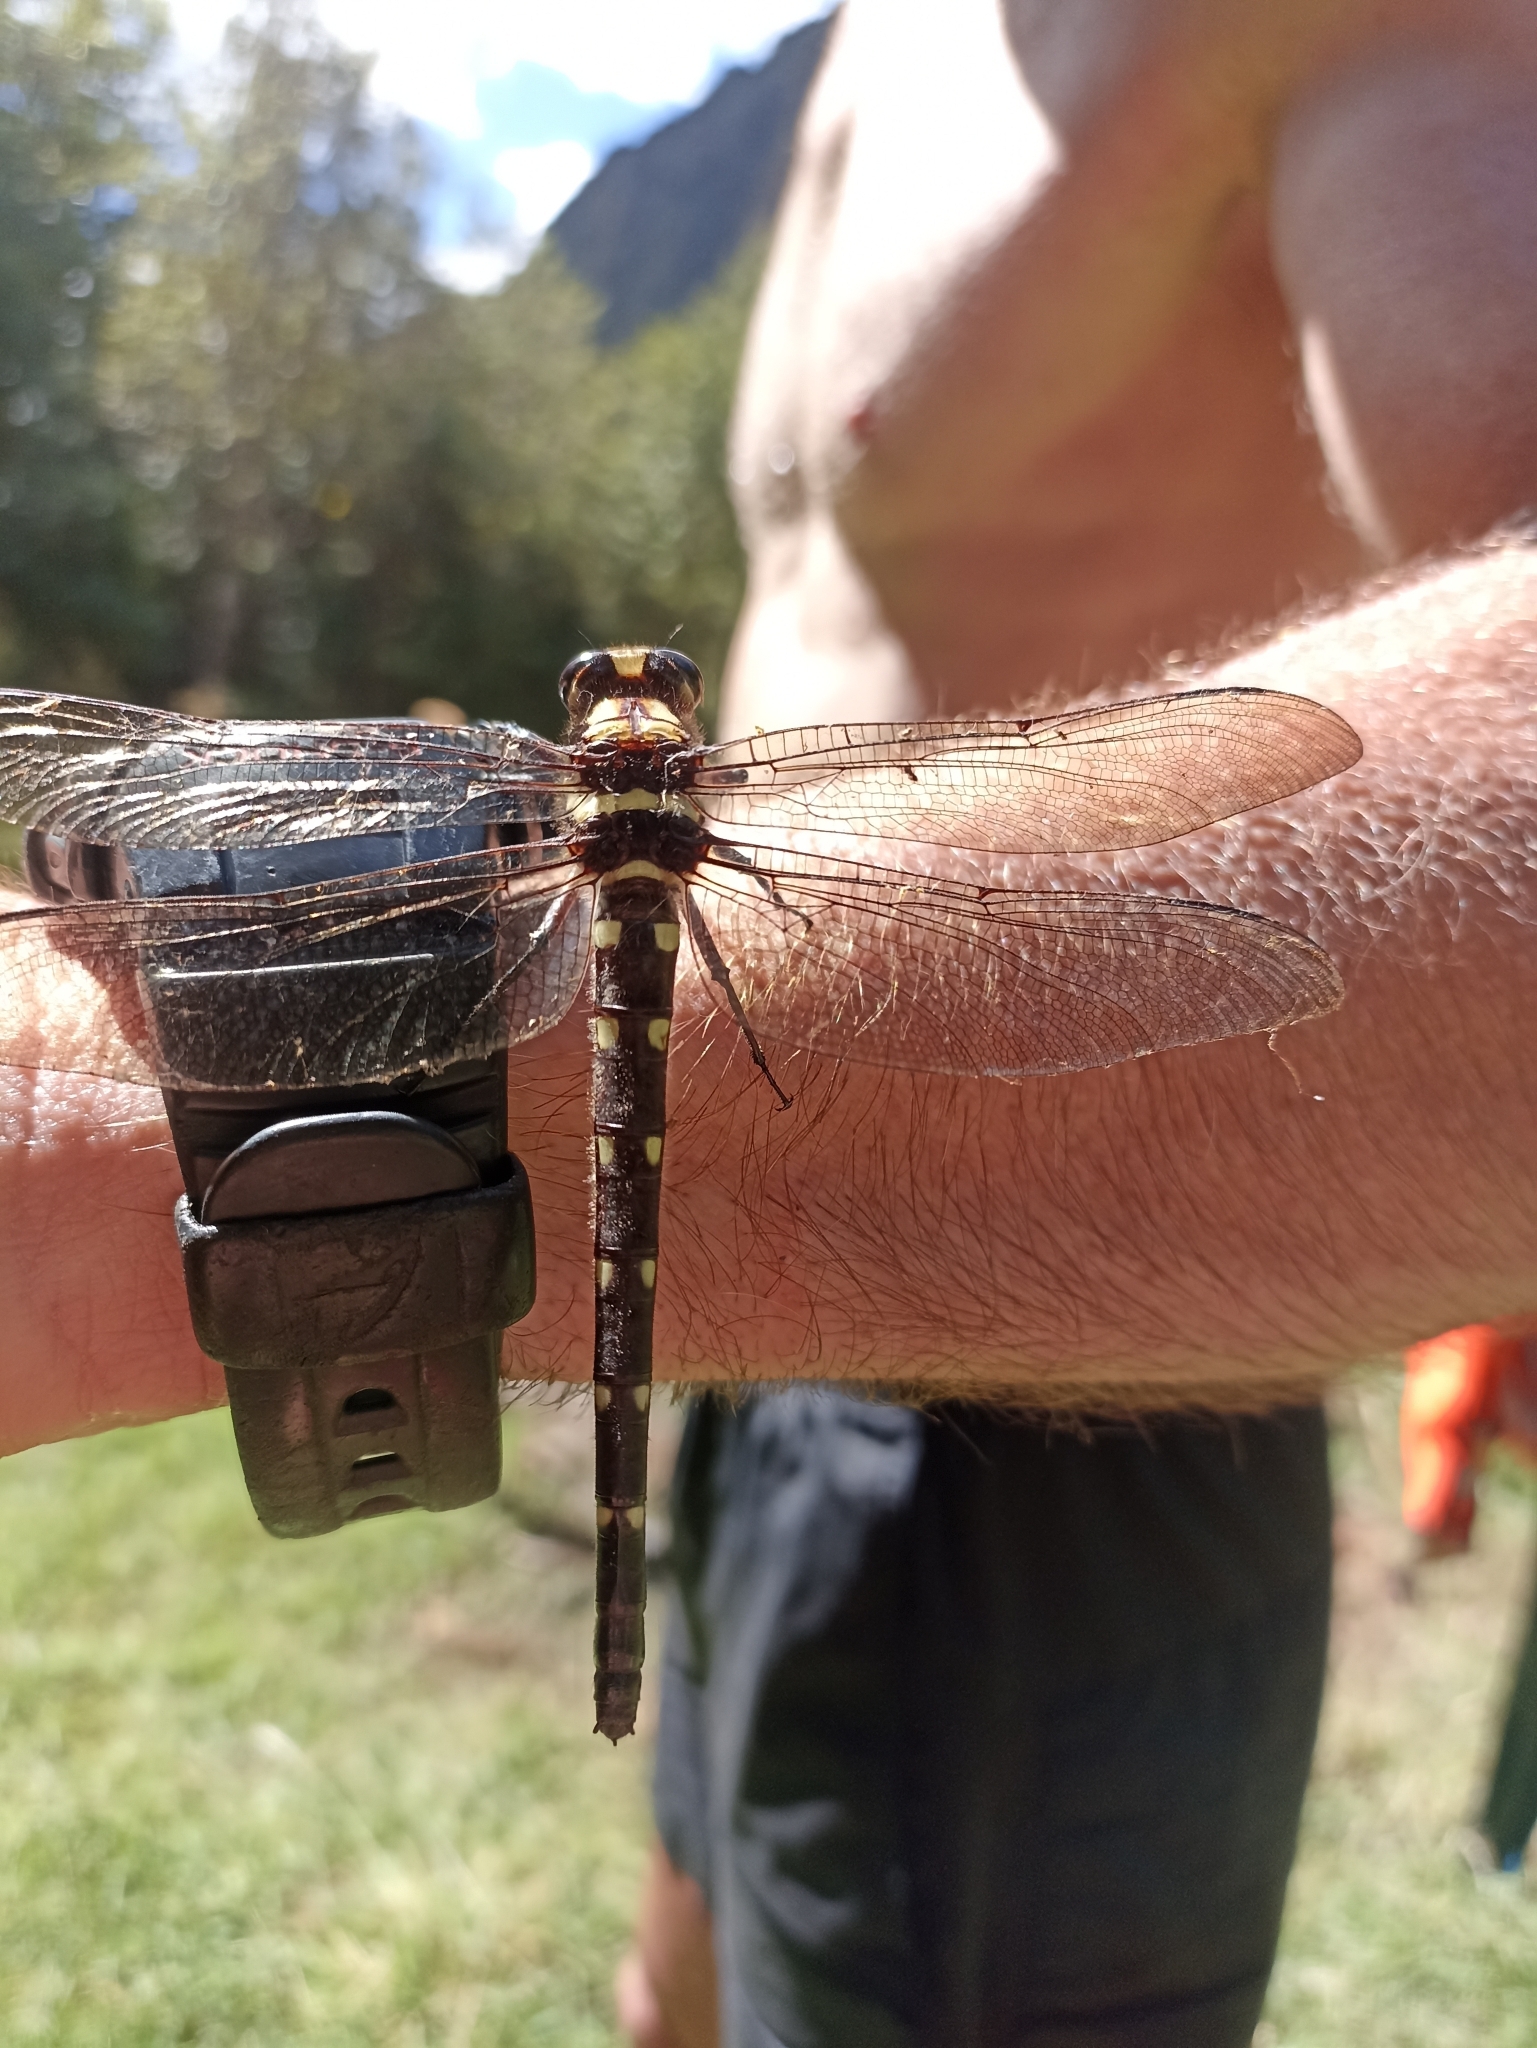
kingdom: Animalia
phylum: Arthropoda
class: Insecta
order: Odonata
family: Petaluridae
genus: Uropetala
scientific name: Uropetala carovei
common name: Bush giant dragonfly
